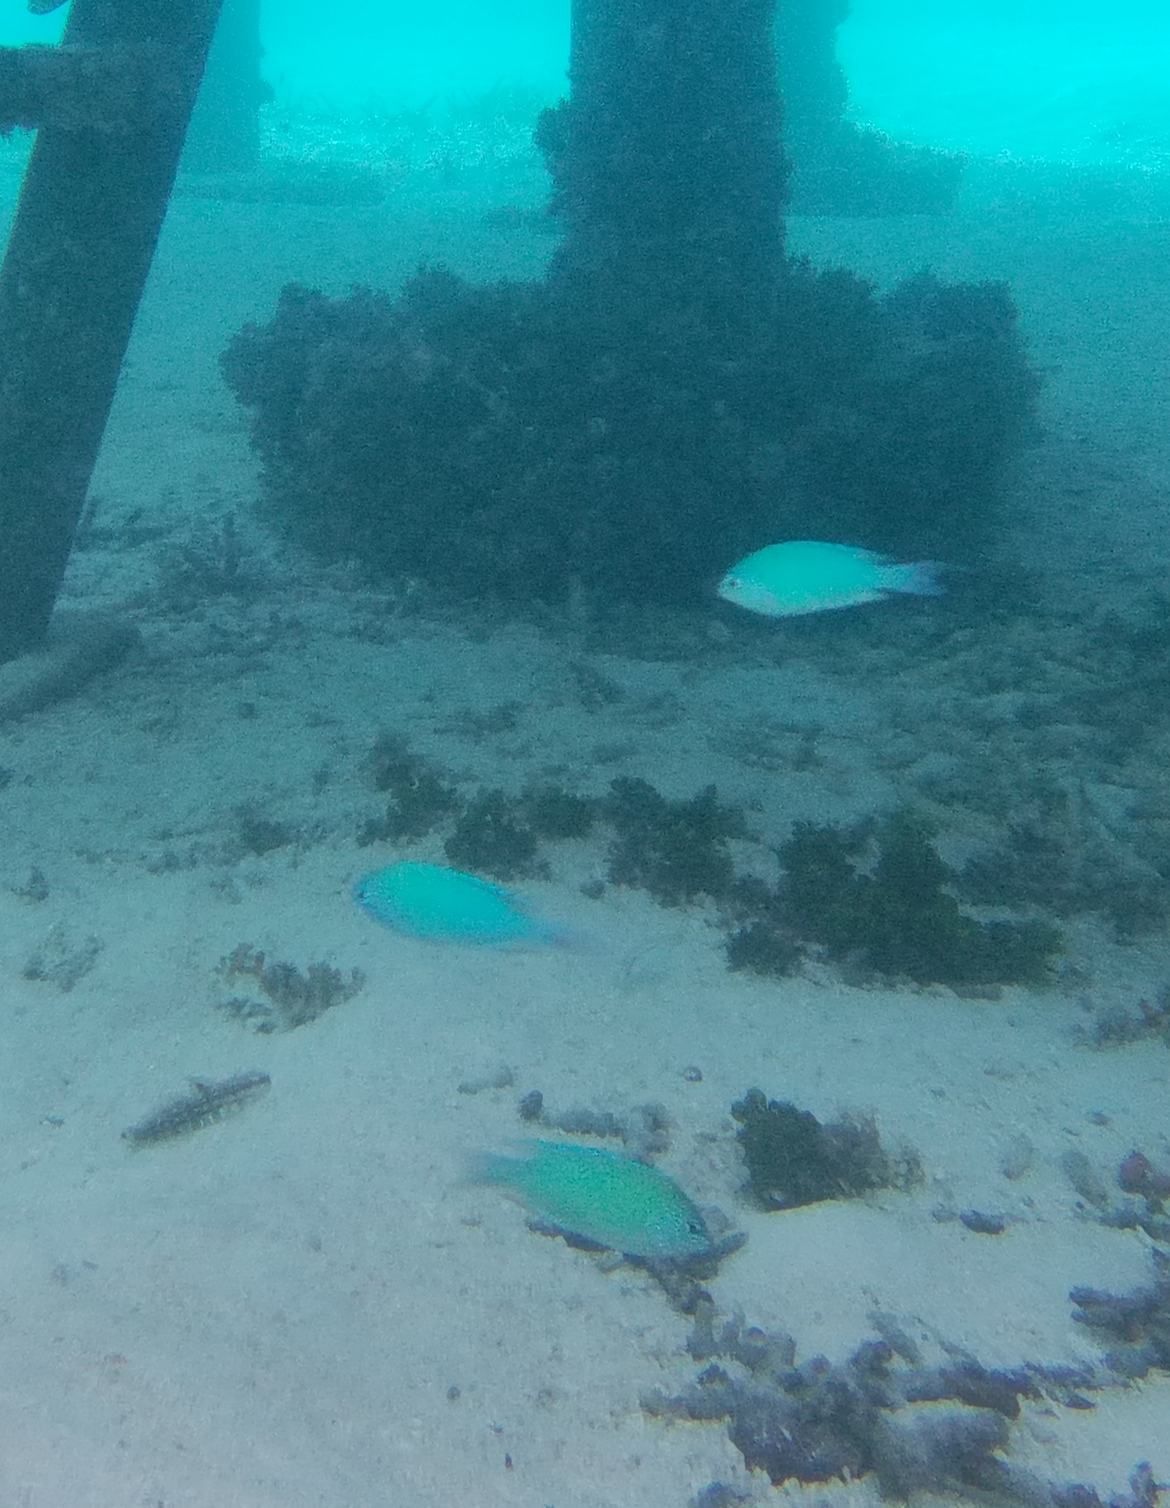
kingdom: Animalia
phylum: Chordata
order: Perciformes
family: Pomacentridae
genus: Pomacentrus
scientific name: Pomacentrus pavo
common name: Sapphire damsel
